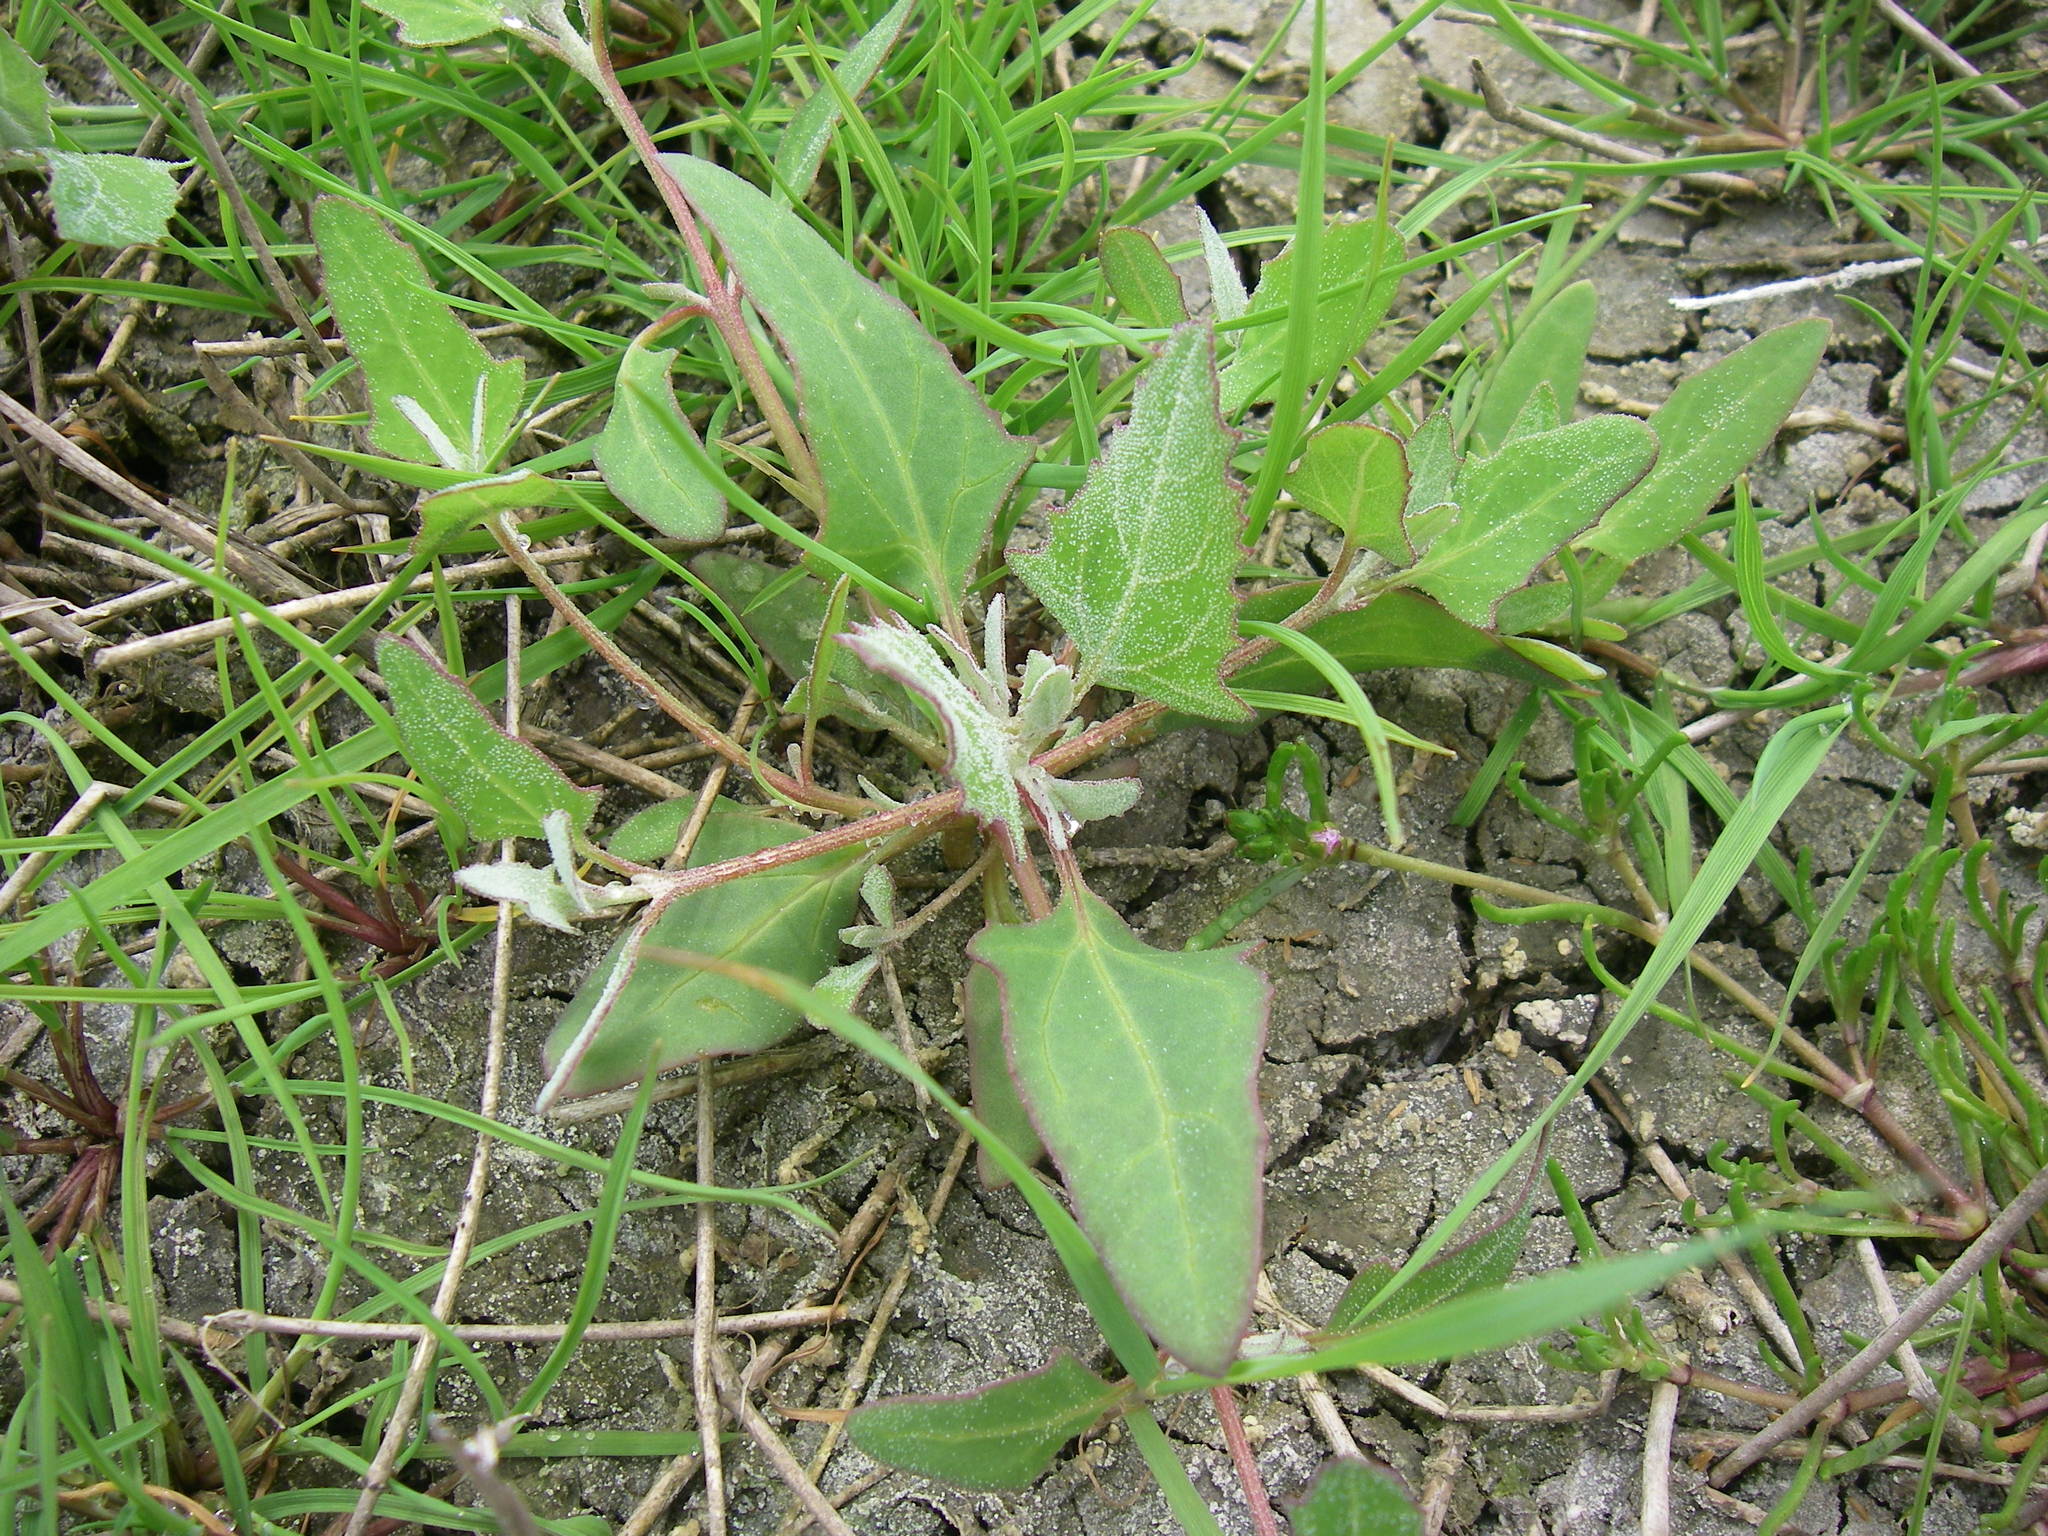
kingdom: Plantae
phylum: Tracheophyta
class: Magnoliopsida
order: Caryophyllales
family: Amaranthaceae
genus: Atriplex
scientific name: Atriplex prostrata
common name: Spear-leaved orache
